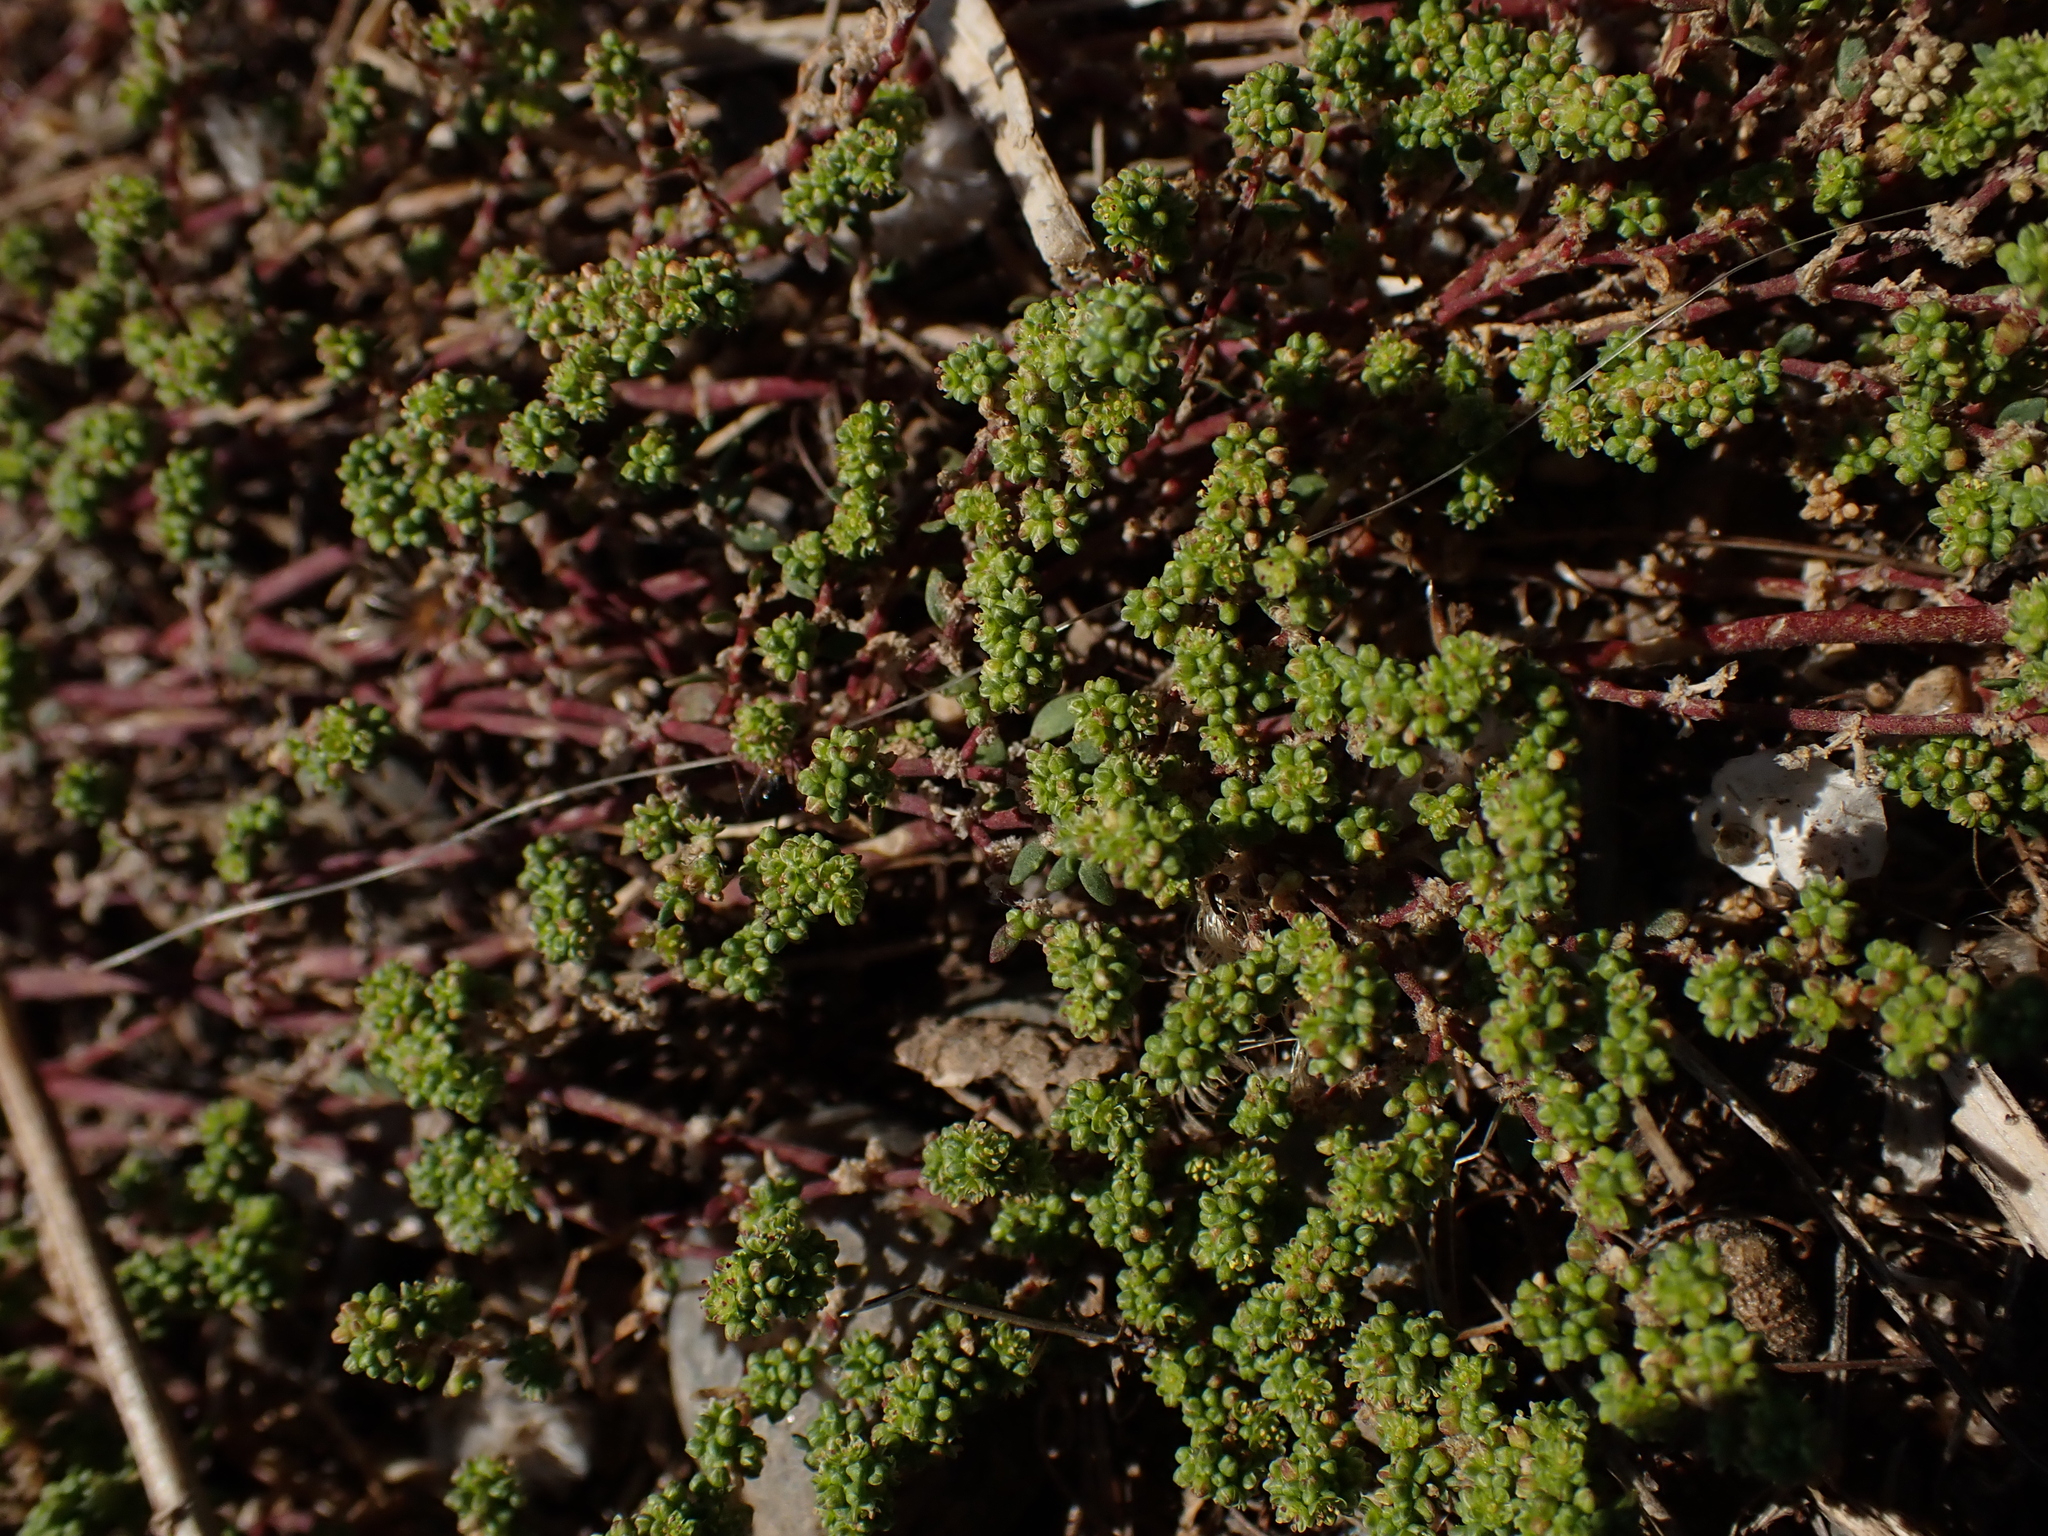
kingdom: Plantae
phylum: Tracheophyta
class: Magnoliopsida
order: Caryophyllales
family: Caryophyllaceae
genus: Herniaria
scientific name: Herniaria glabra
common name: Smooth rupturewort
